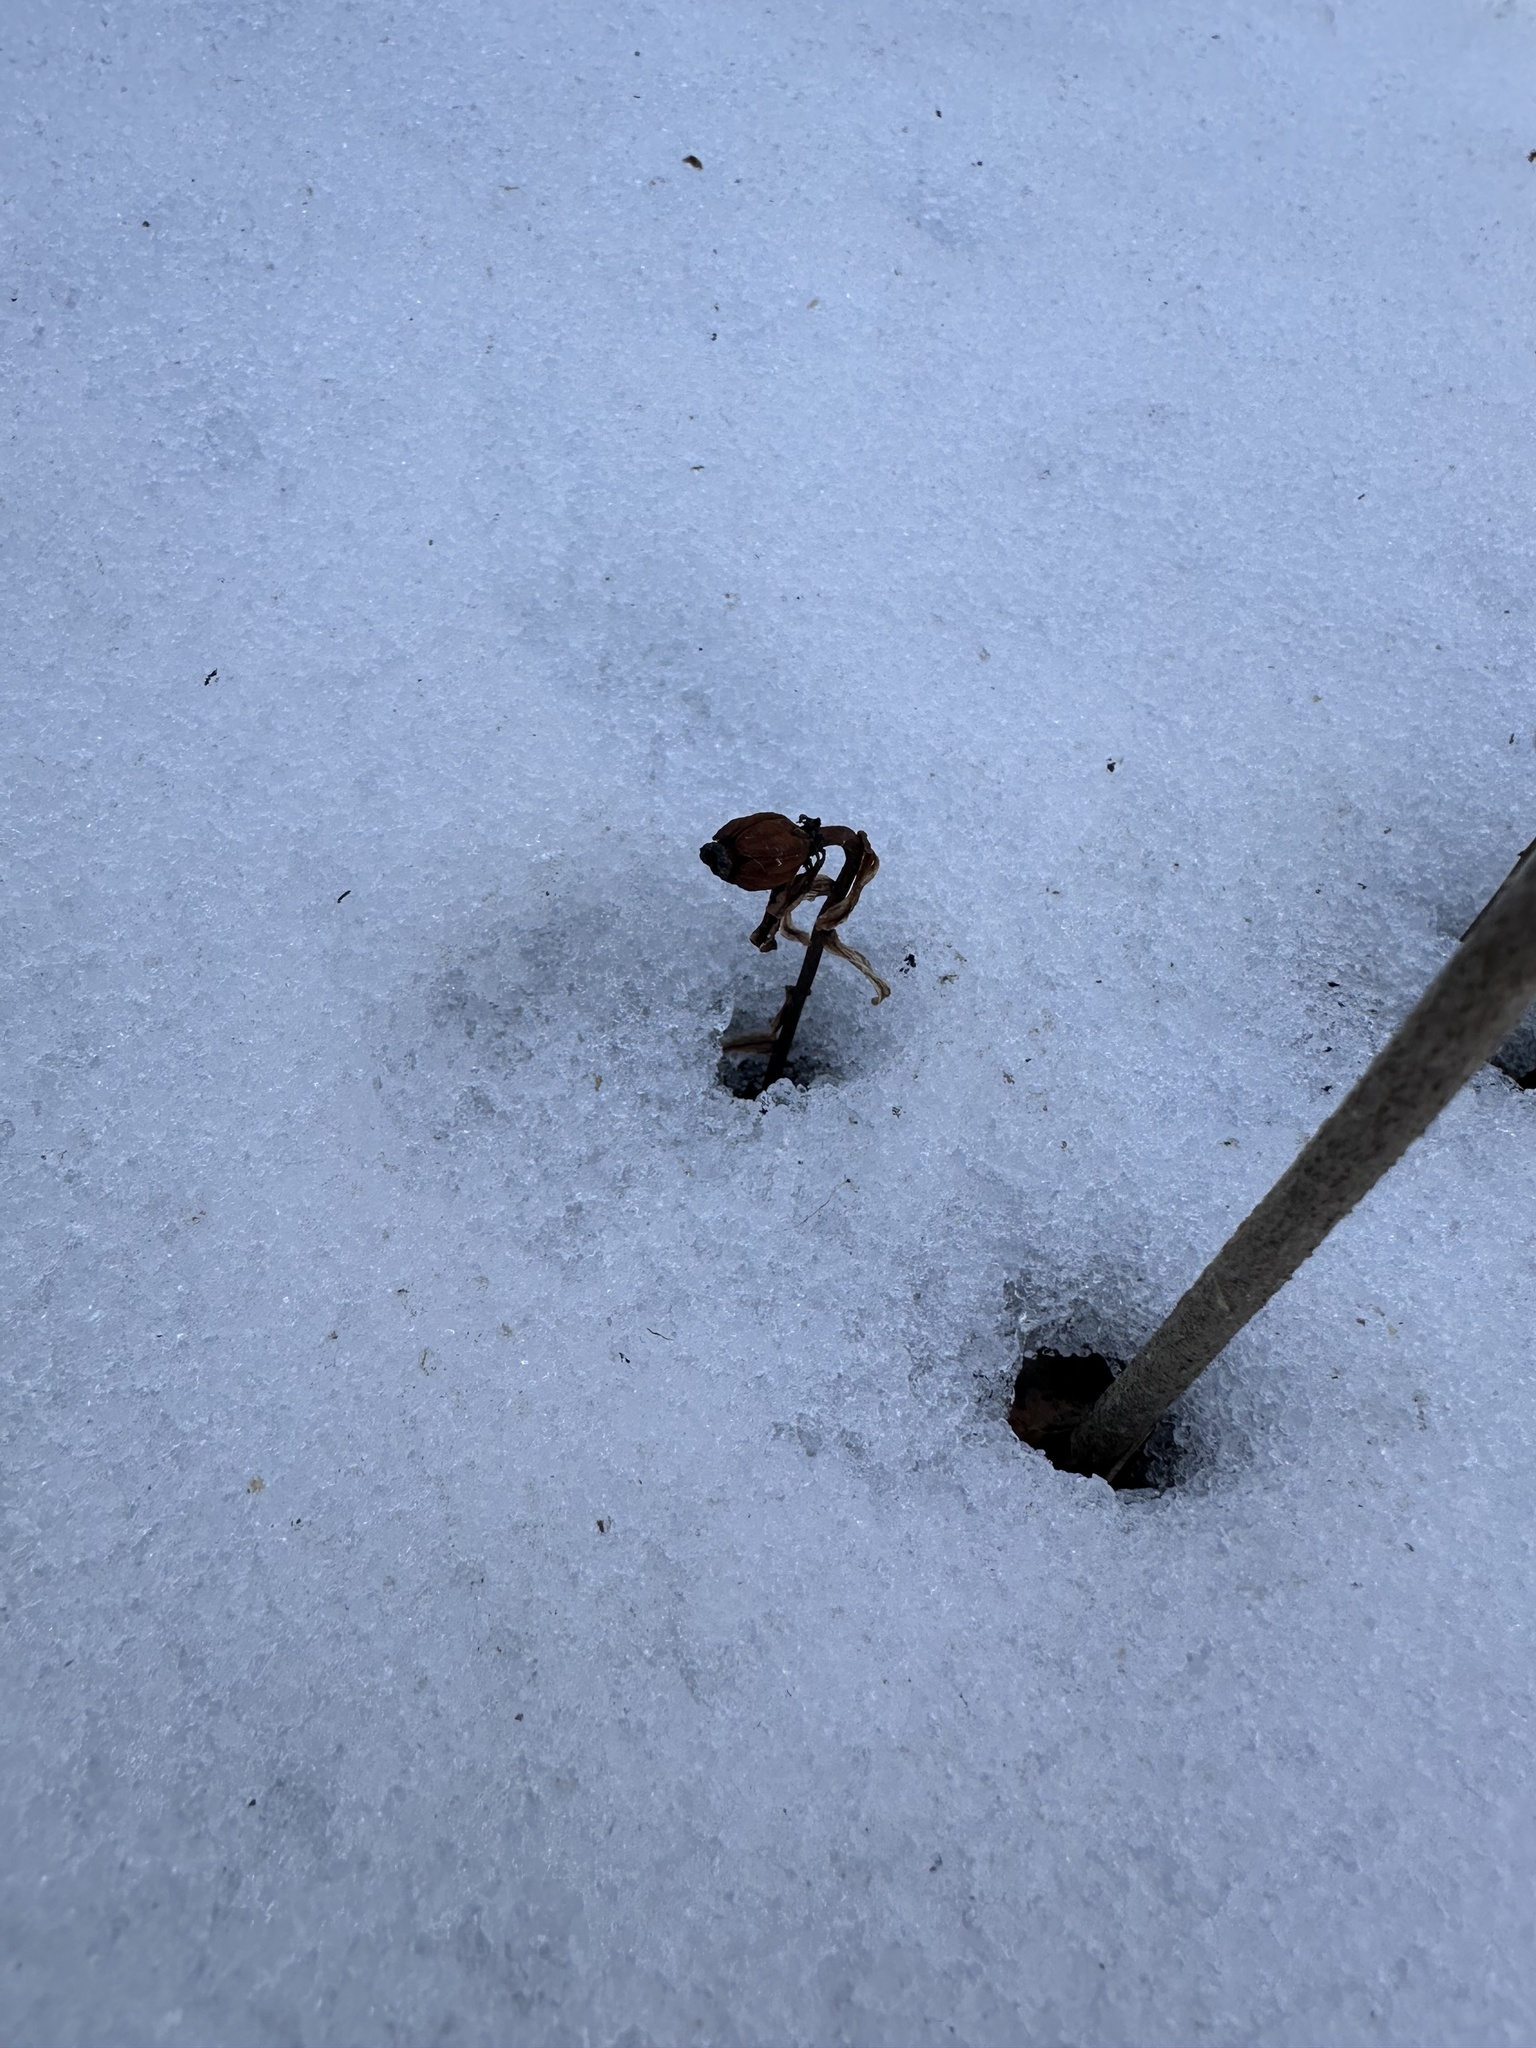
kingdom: Plantae
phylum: Tracheophyta
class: Magnoliopsida
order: Ericales
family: Ericaceae
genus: Monotropa
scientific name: Monotropa uniflora
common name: Convulsion root
